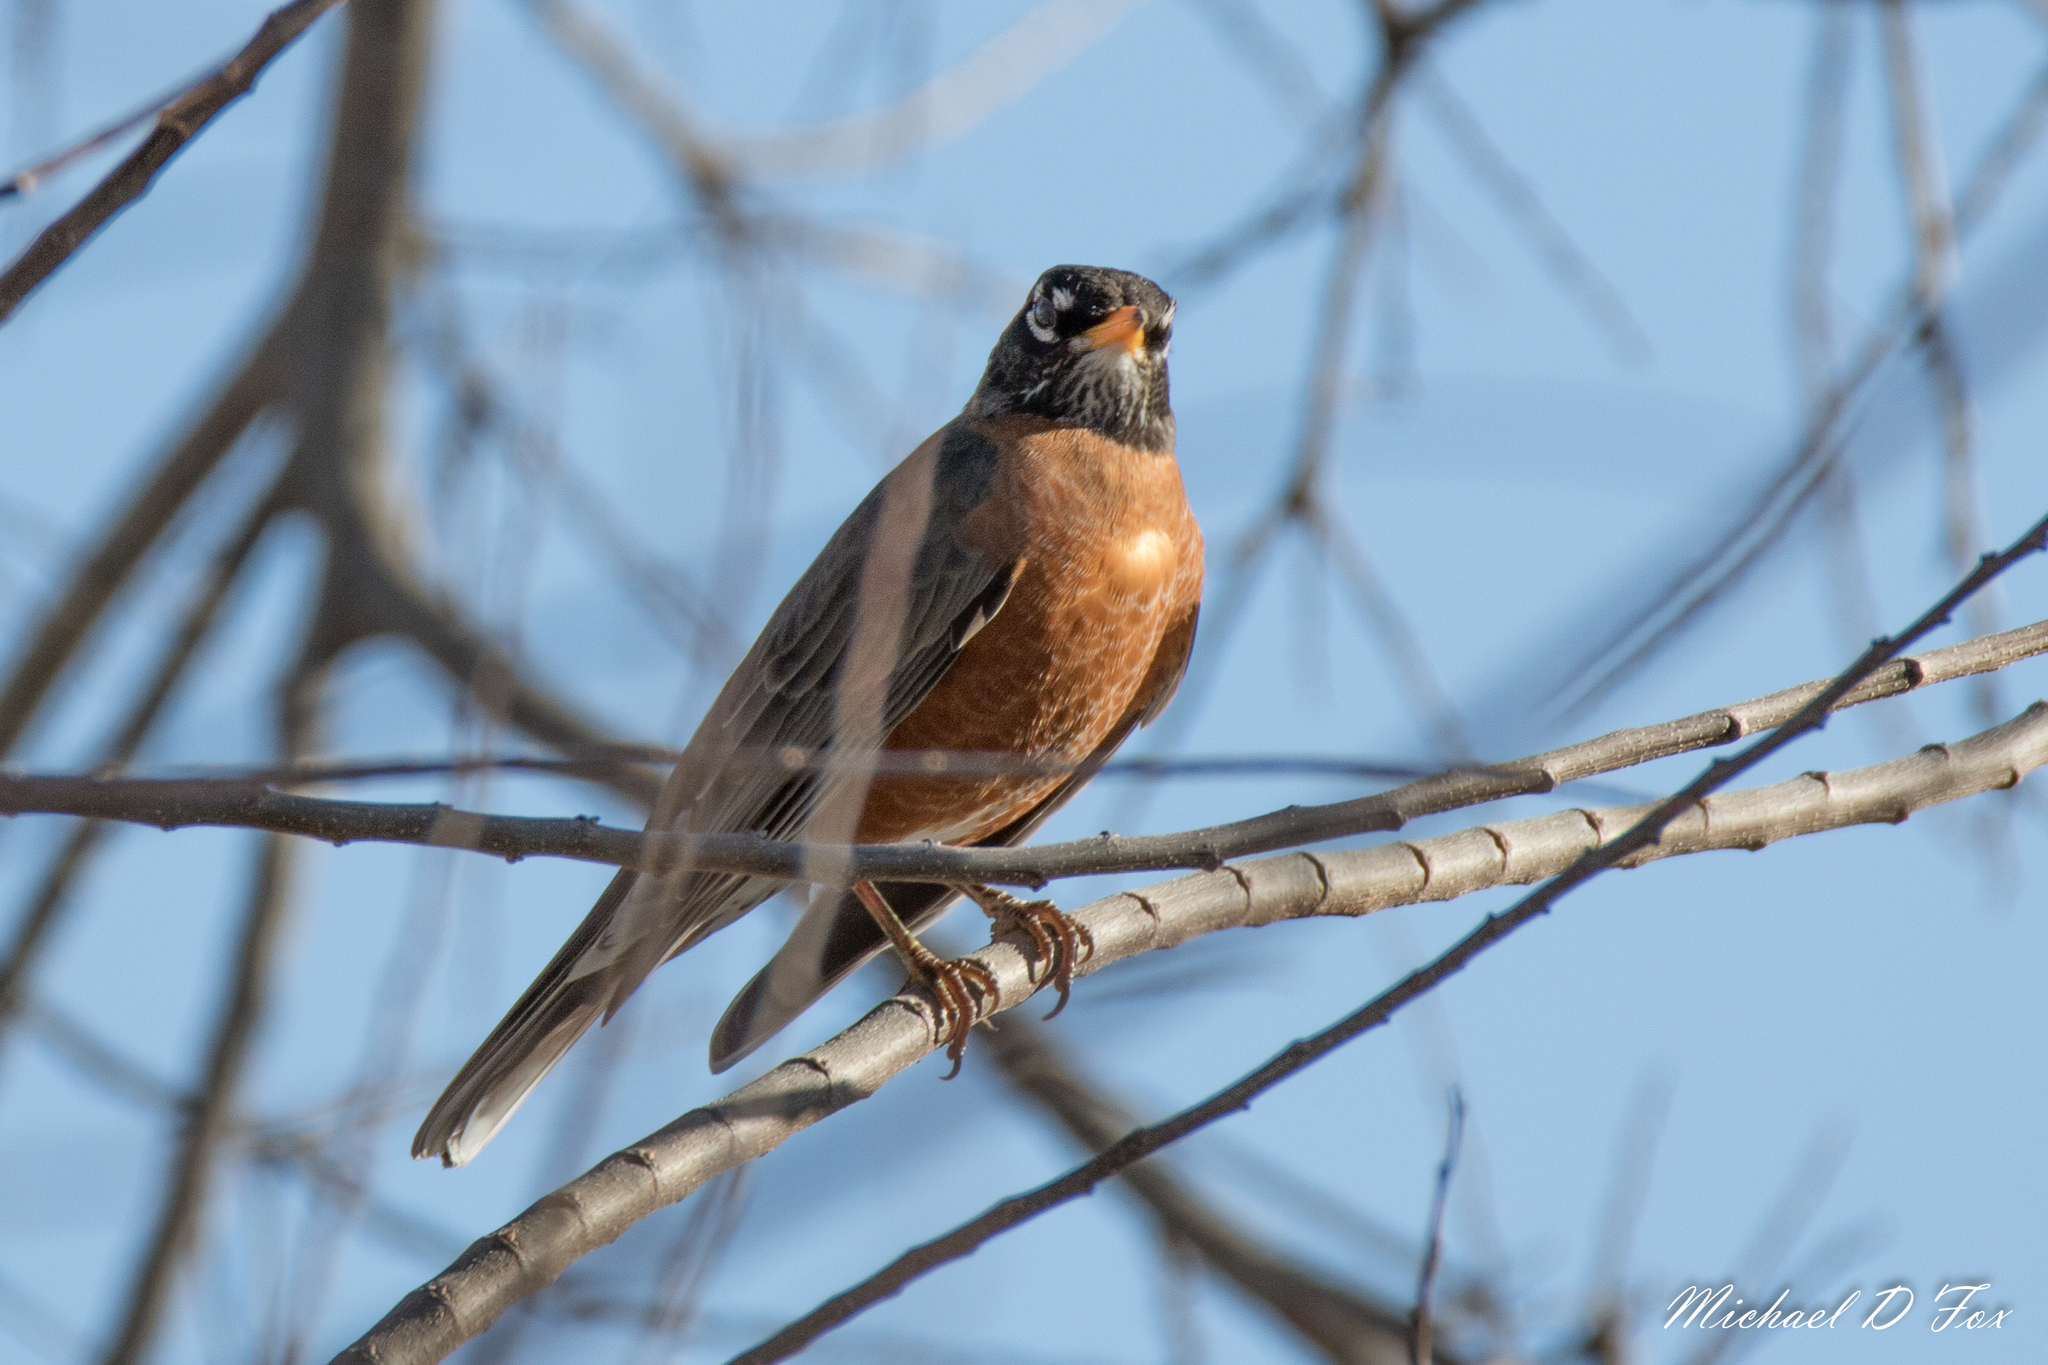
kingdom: Animalia
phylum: Chordata
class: Aves
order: Passeriformes
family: Turdidae
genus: Turdus
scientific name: Turdus migratorius
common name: American robin
